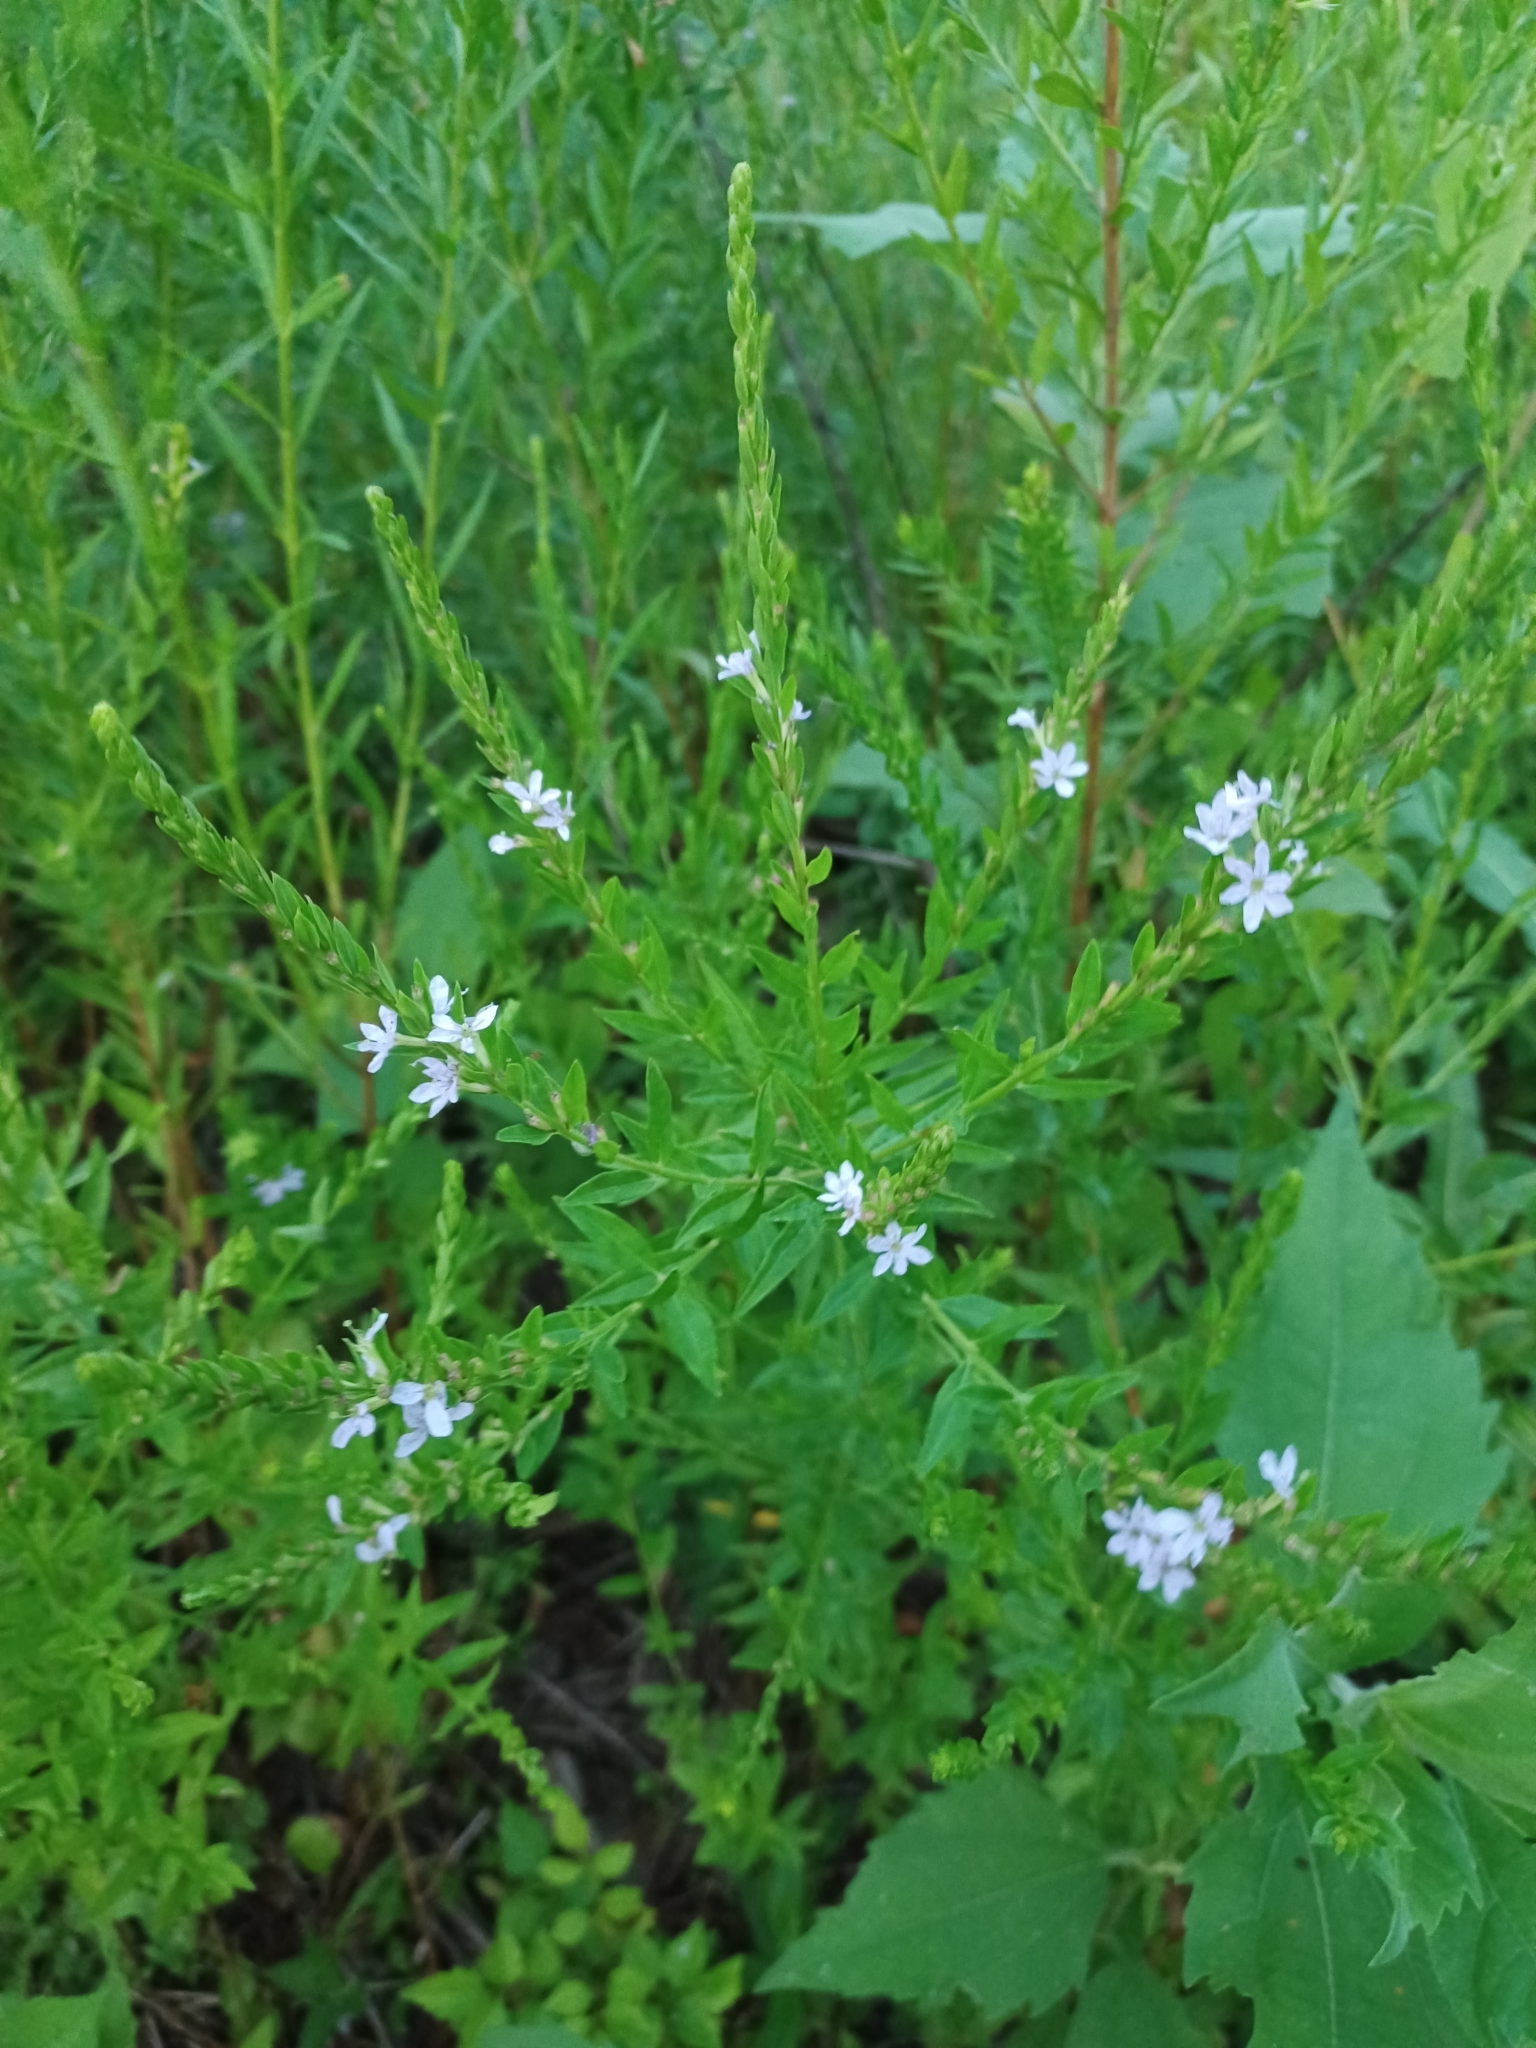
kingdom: Plantae
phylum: Tracheophyta
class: Magnoliopsida
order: Myrtales
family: Lythraceae
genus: Lythrum
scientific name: Lythrum alatum
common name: Winged loosestrife
